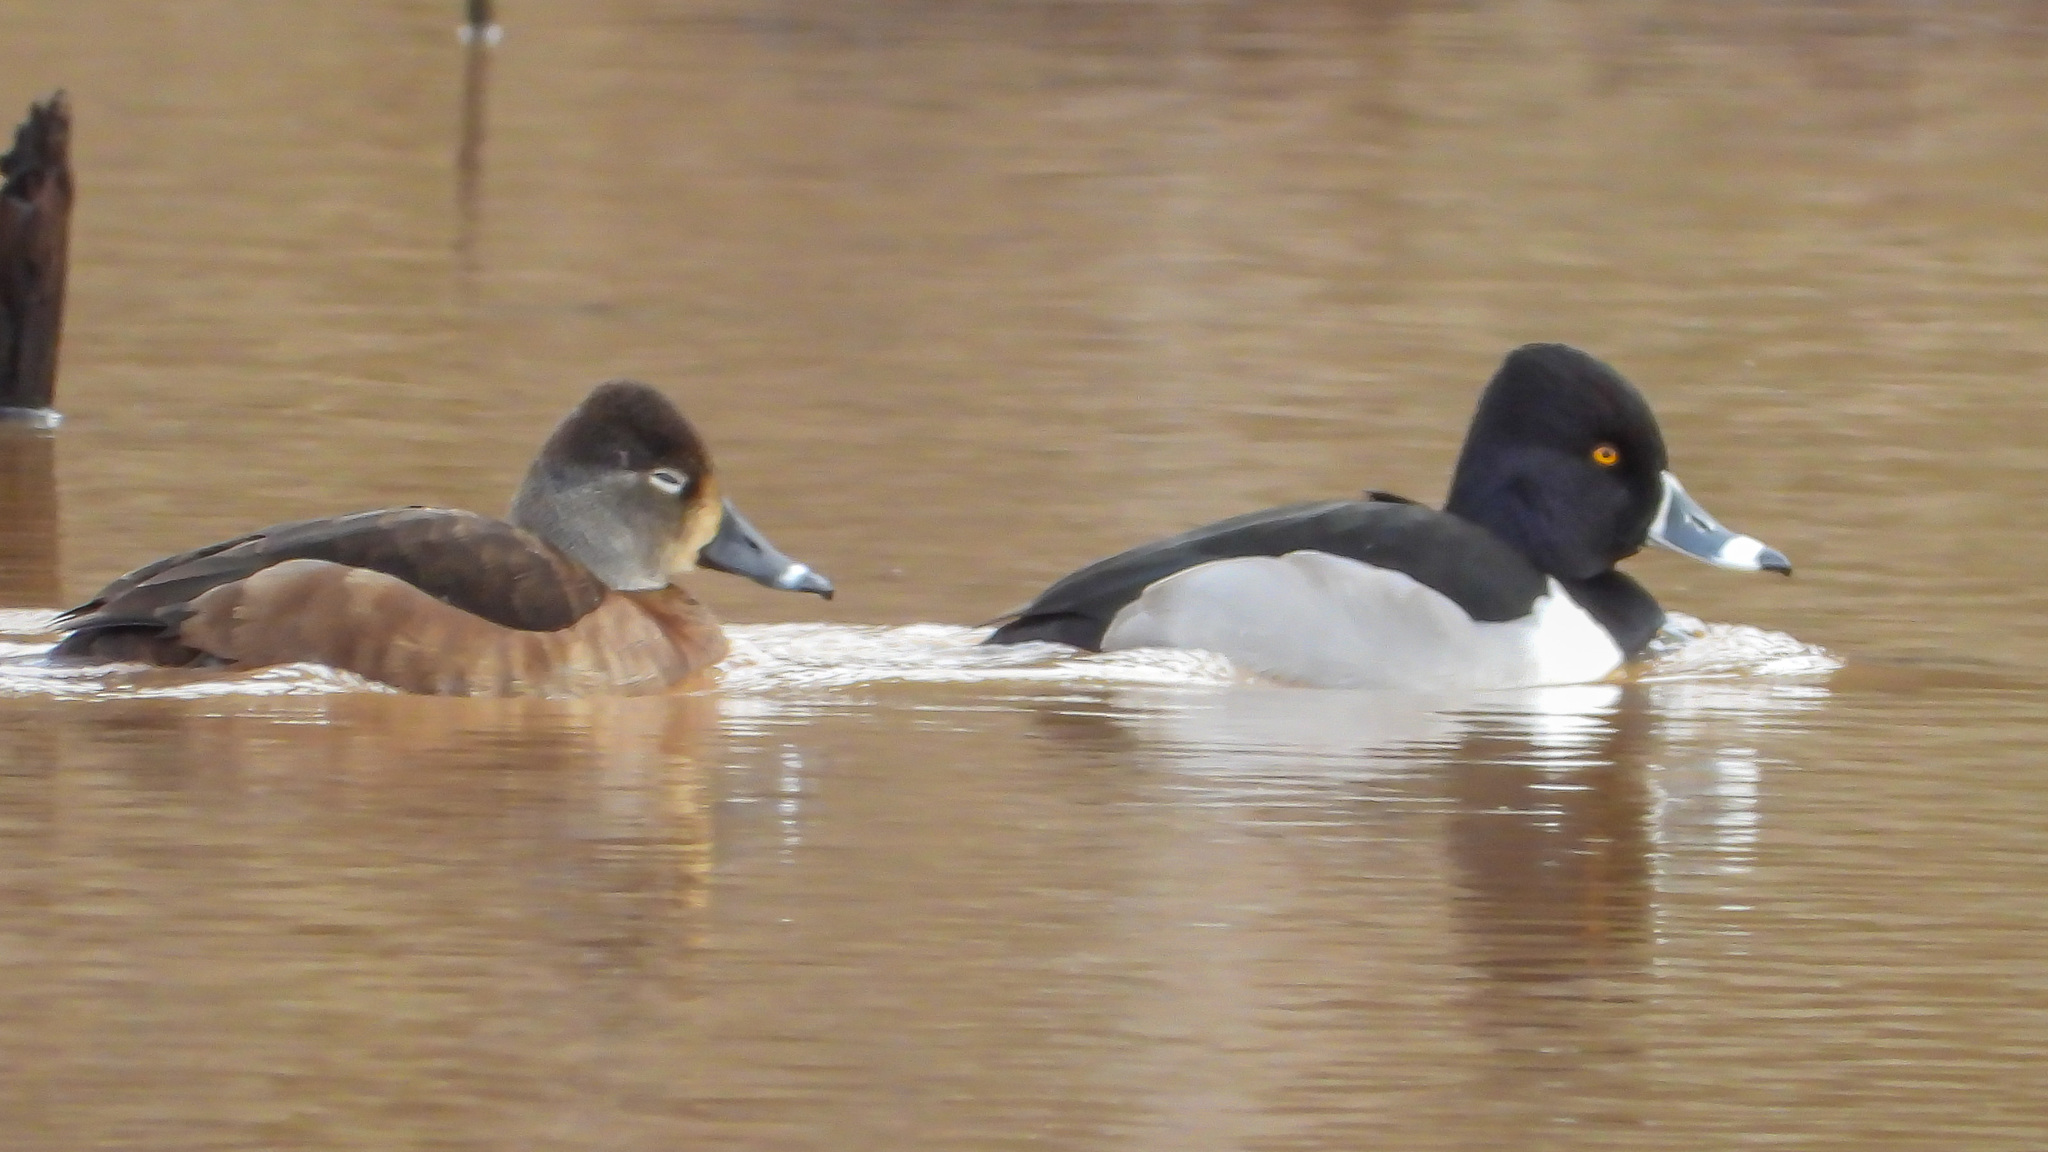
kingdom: Animalia
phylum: Chordata
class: Aves
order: Anseriformes
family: Anatidae
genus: Aythya
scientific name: Aythya collaris
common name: Ring-necked duck
